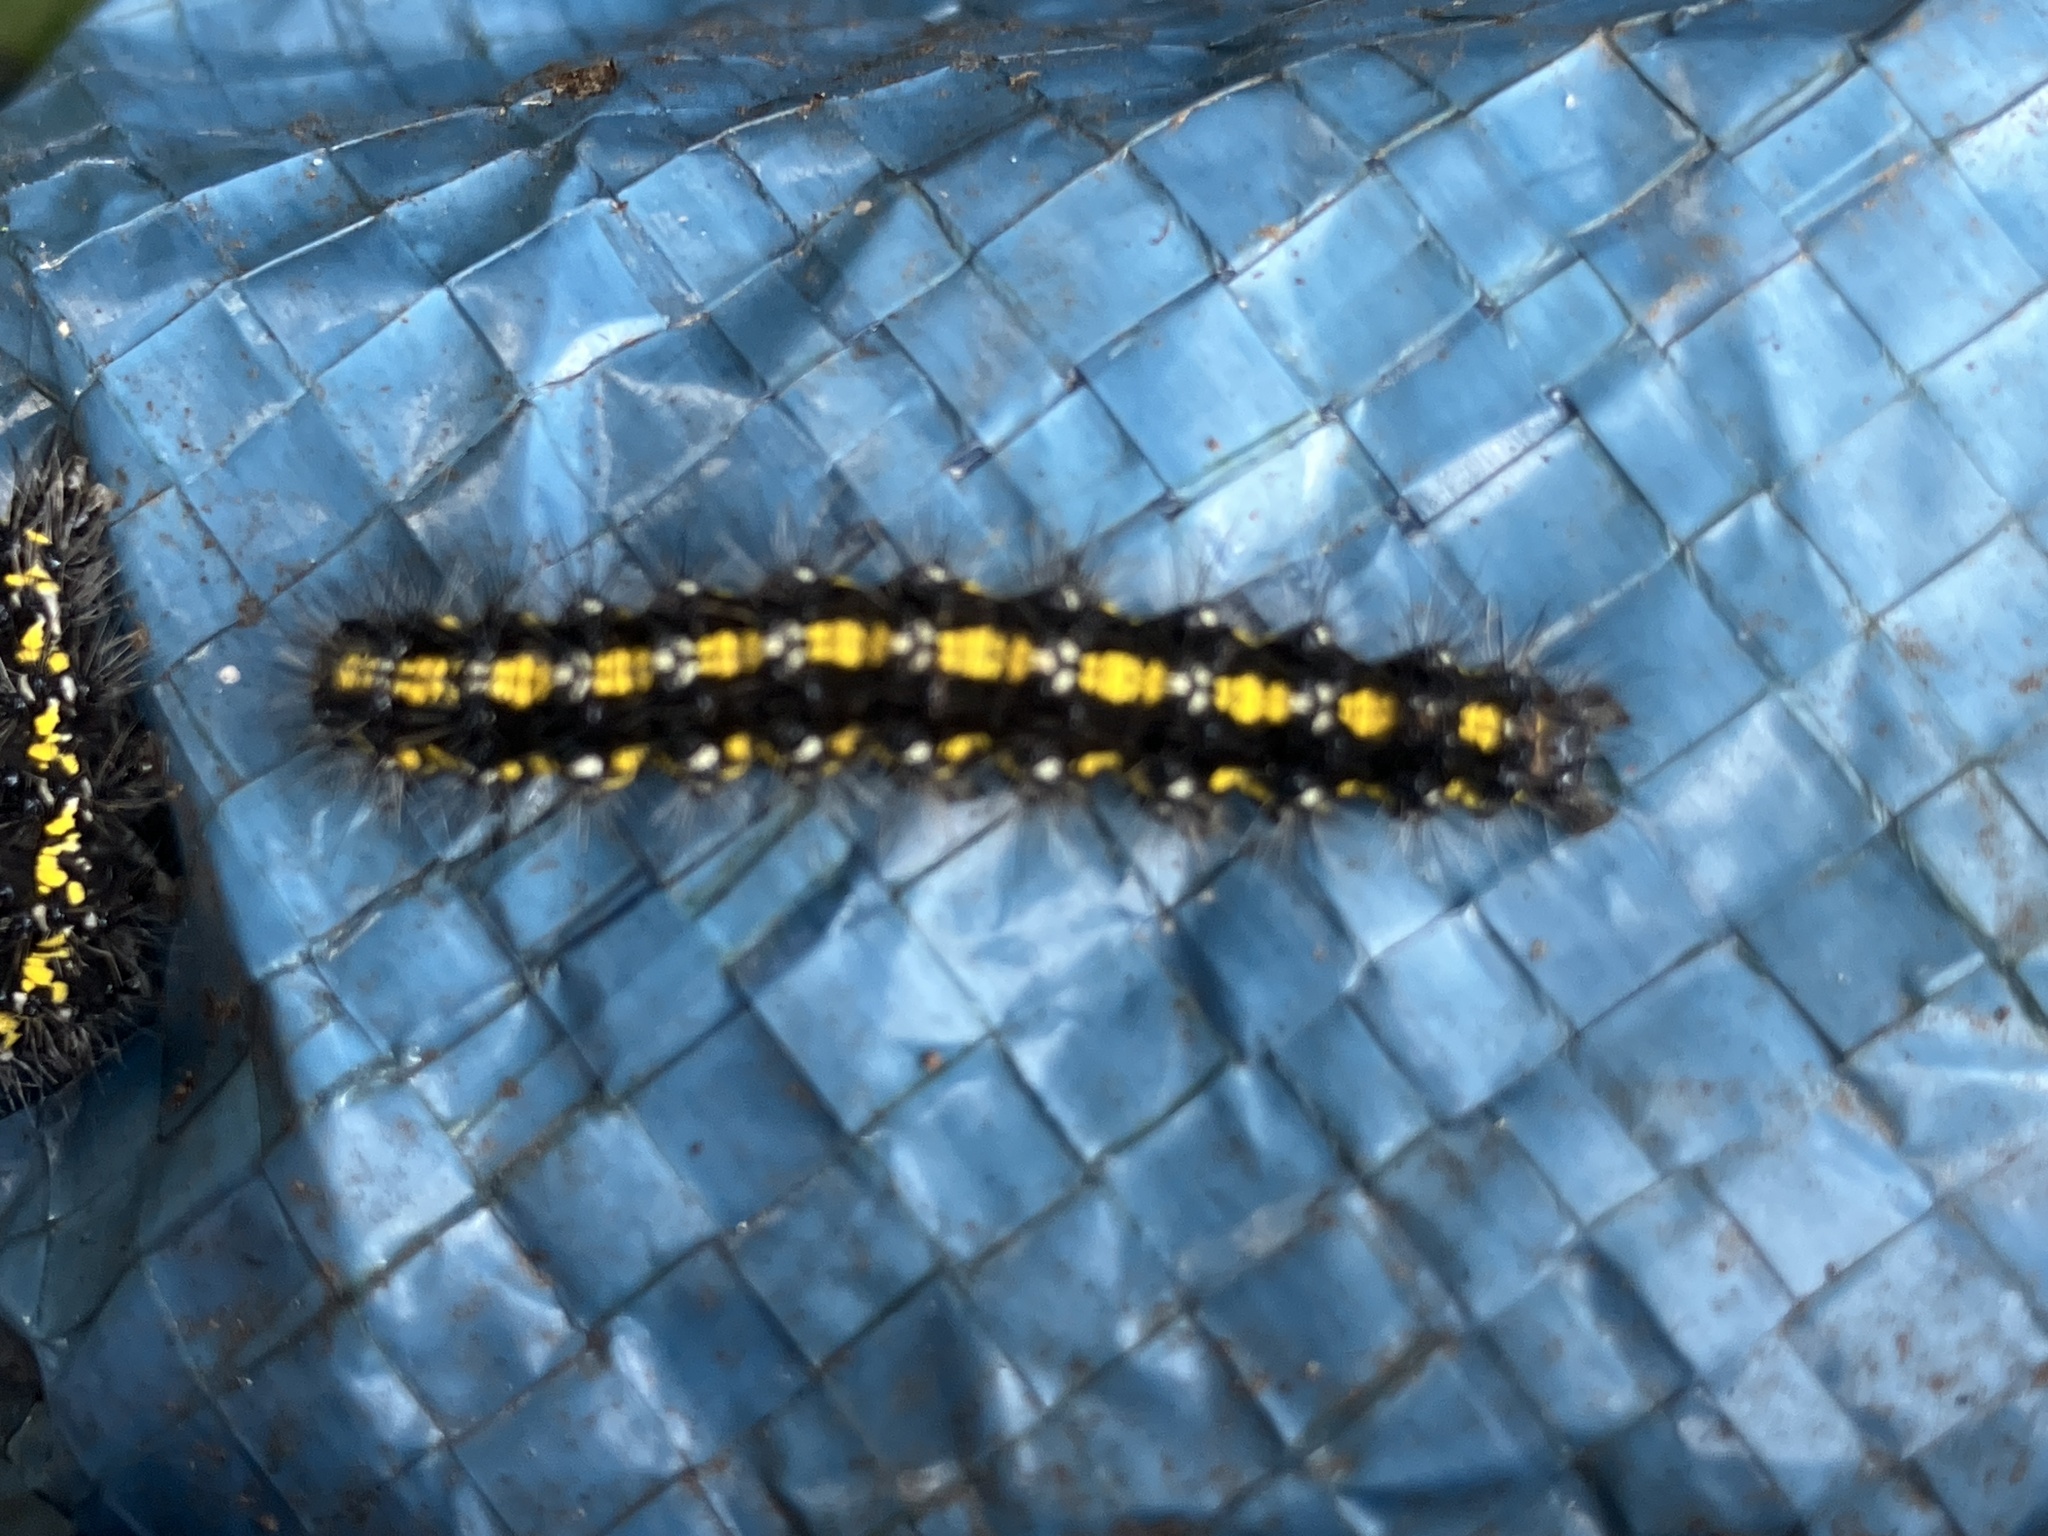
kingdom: Animalia
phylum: Arthropoda
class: Insecta
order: Lepidoptera
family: Erebidae
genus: Callimorpha
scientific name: Callimorpha dominula
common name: Scarlet tiger
